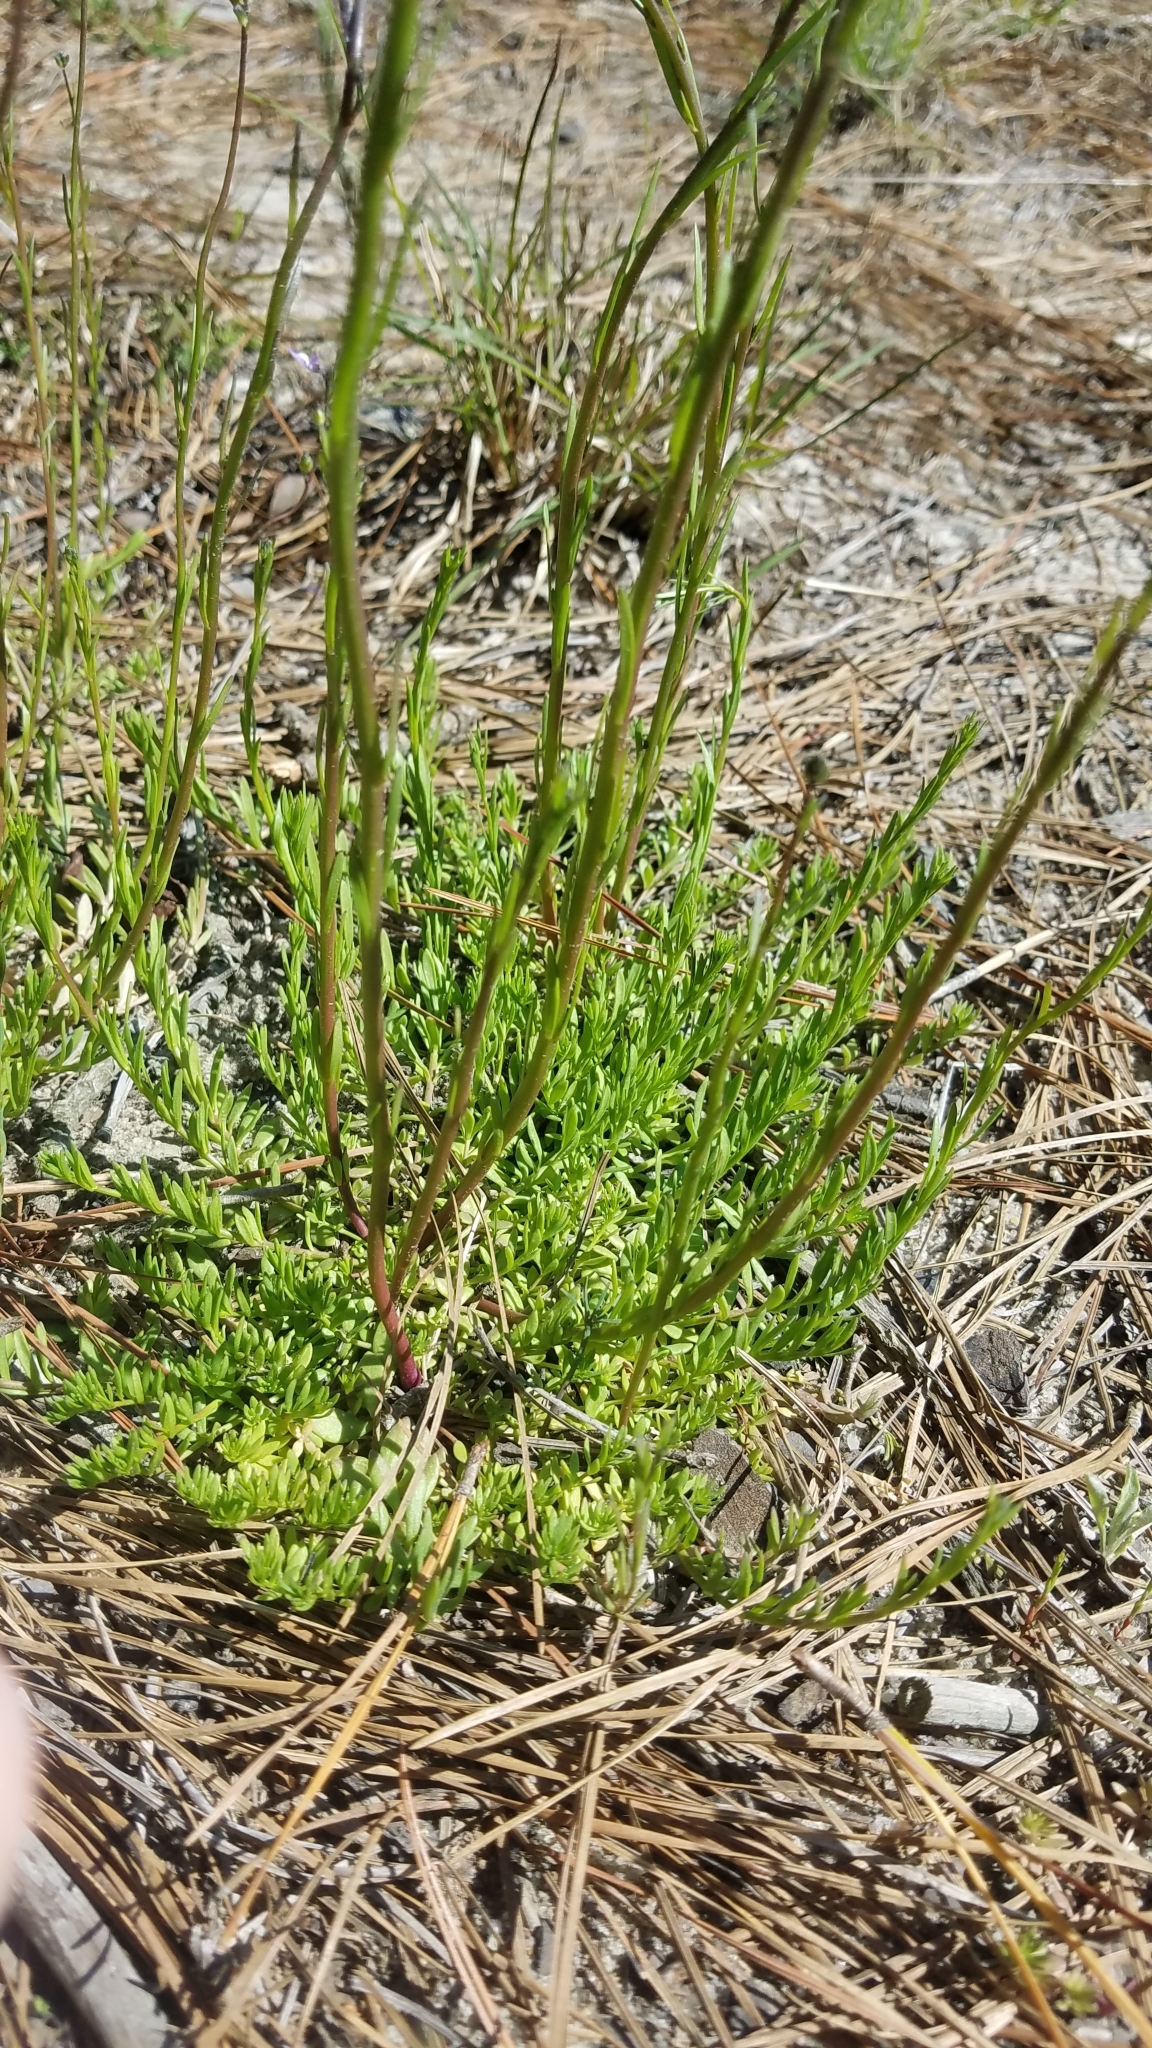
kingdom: Plantae
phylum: Tracheophyta
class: Magnoliopsida
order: Lamiales
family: Plantaginaceae
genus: Nuttallanthus
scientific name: Nuttallanthus canadensis
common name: Blue toadflax
